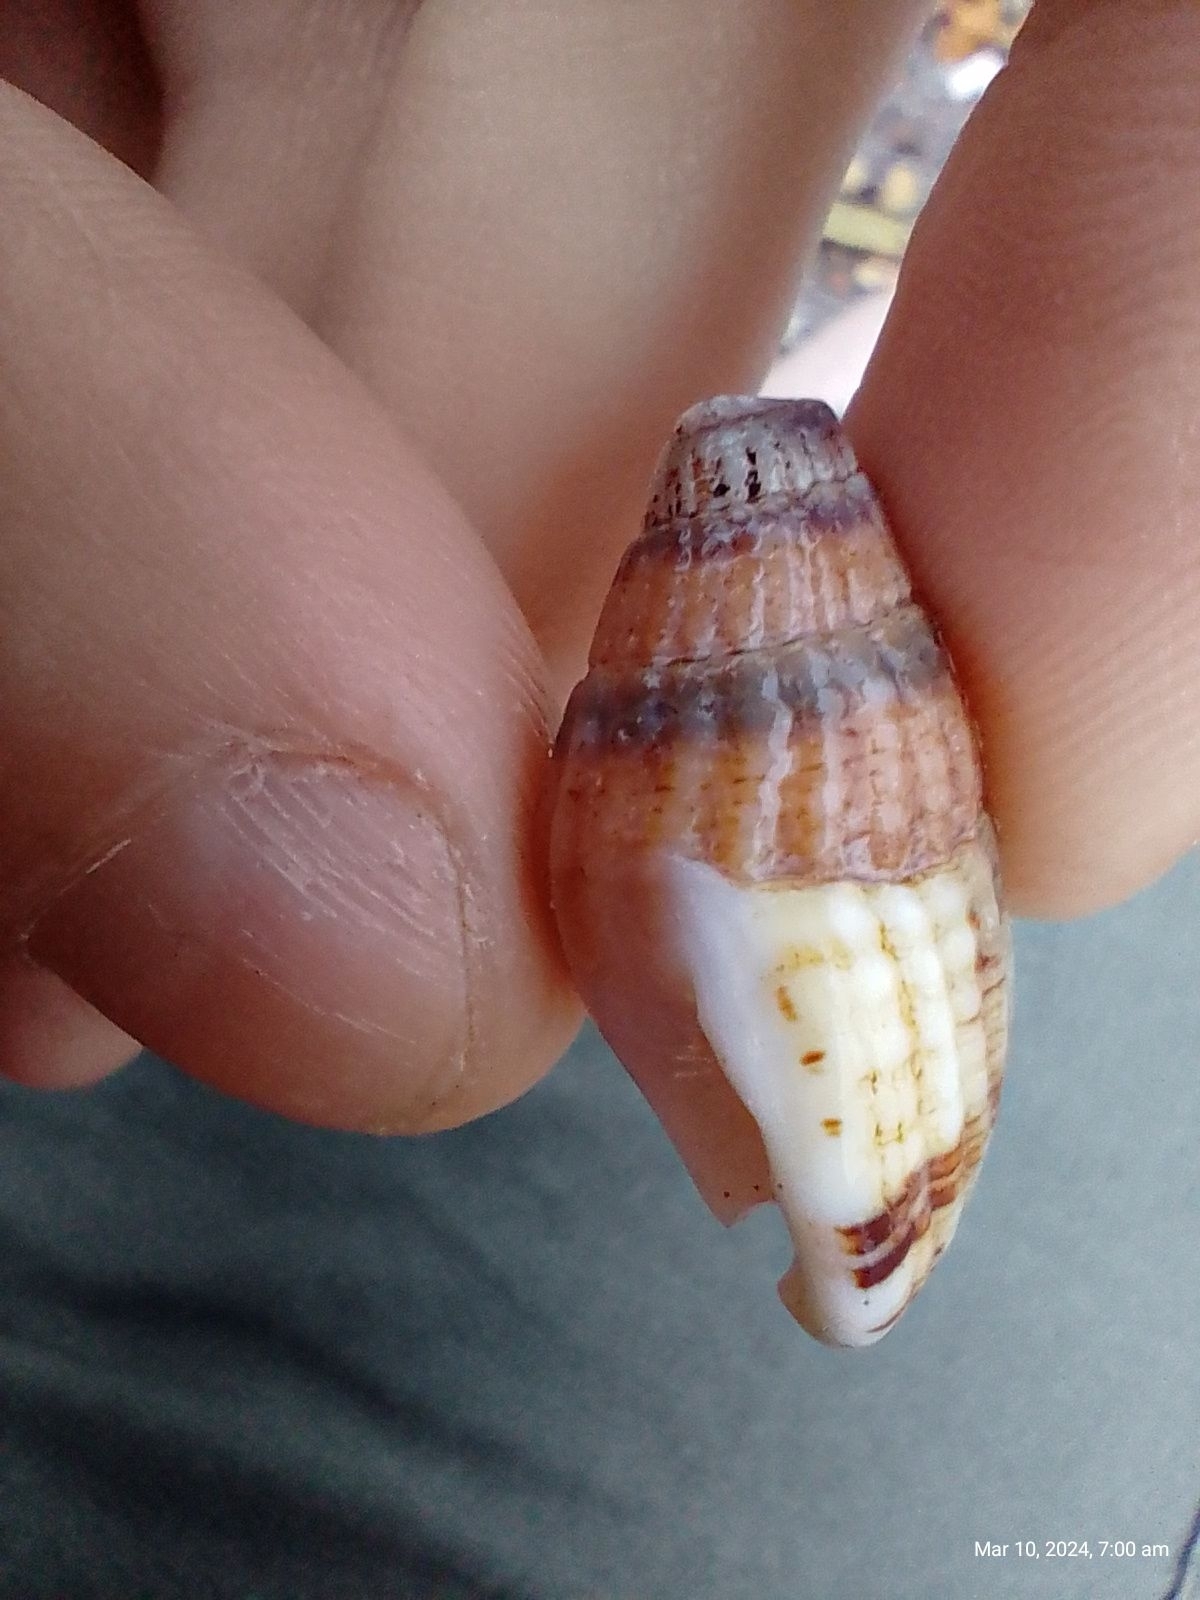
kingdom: Animalia
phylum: Mollusca
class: Gastropoda
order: Neogastropoda
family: Nassariidae
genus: Tritia
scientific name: Tritia reticulata
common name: Netted dog whelk
